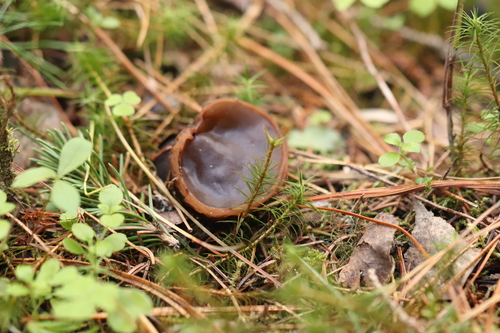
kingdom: Fungi
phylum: Ascomycota
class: Pezizomycetes
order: Pezizales
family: Sarcosomataceae
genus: Sarcosoma
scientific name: Sarcosoma globosum
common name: Charred-pancake cup
